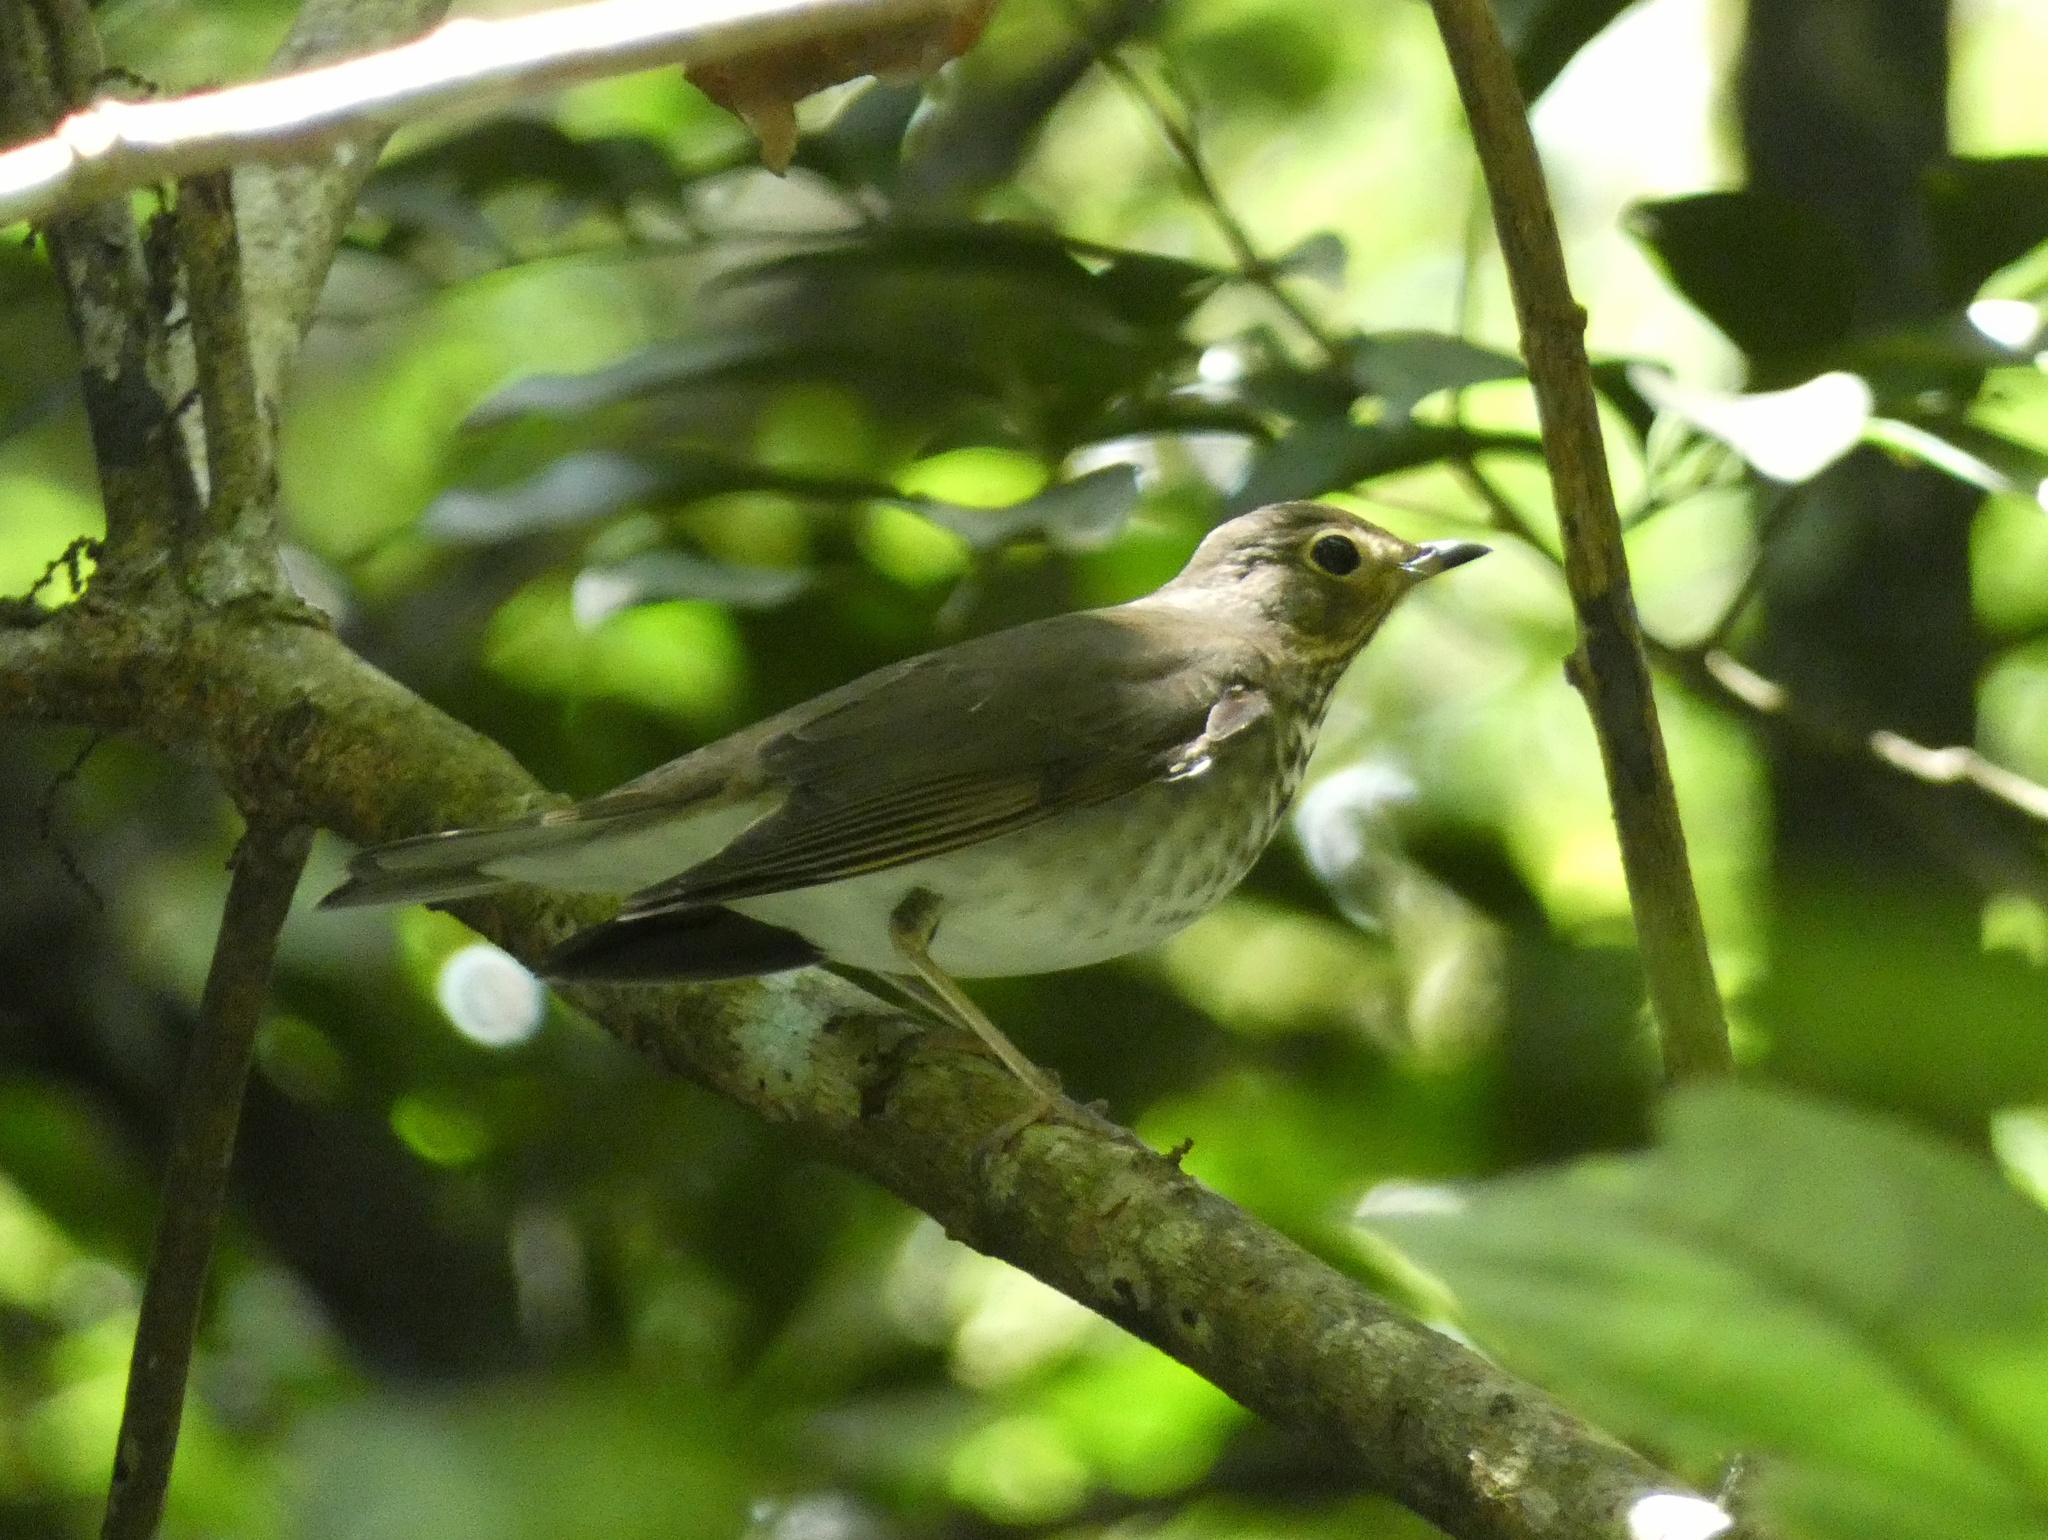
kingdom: Animalia
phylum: Chordata
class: Aves
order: Passeriformes
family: Turdidae
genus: Catharus
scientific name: Catharus ustulatus
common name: Swainson's thrush
